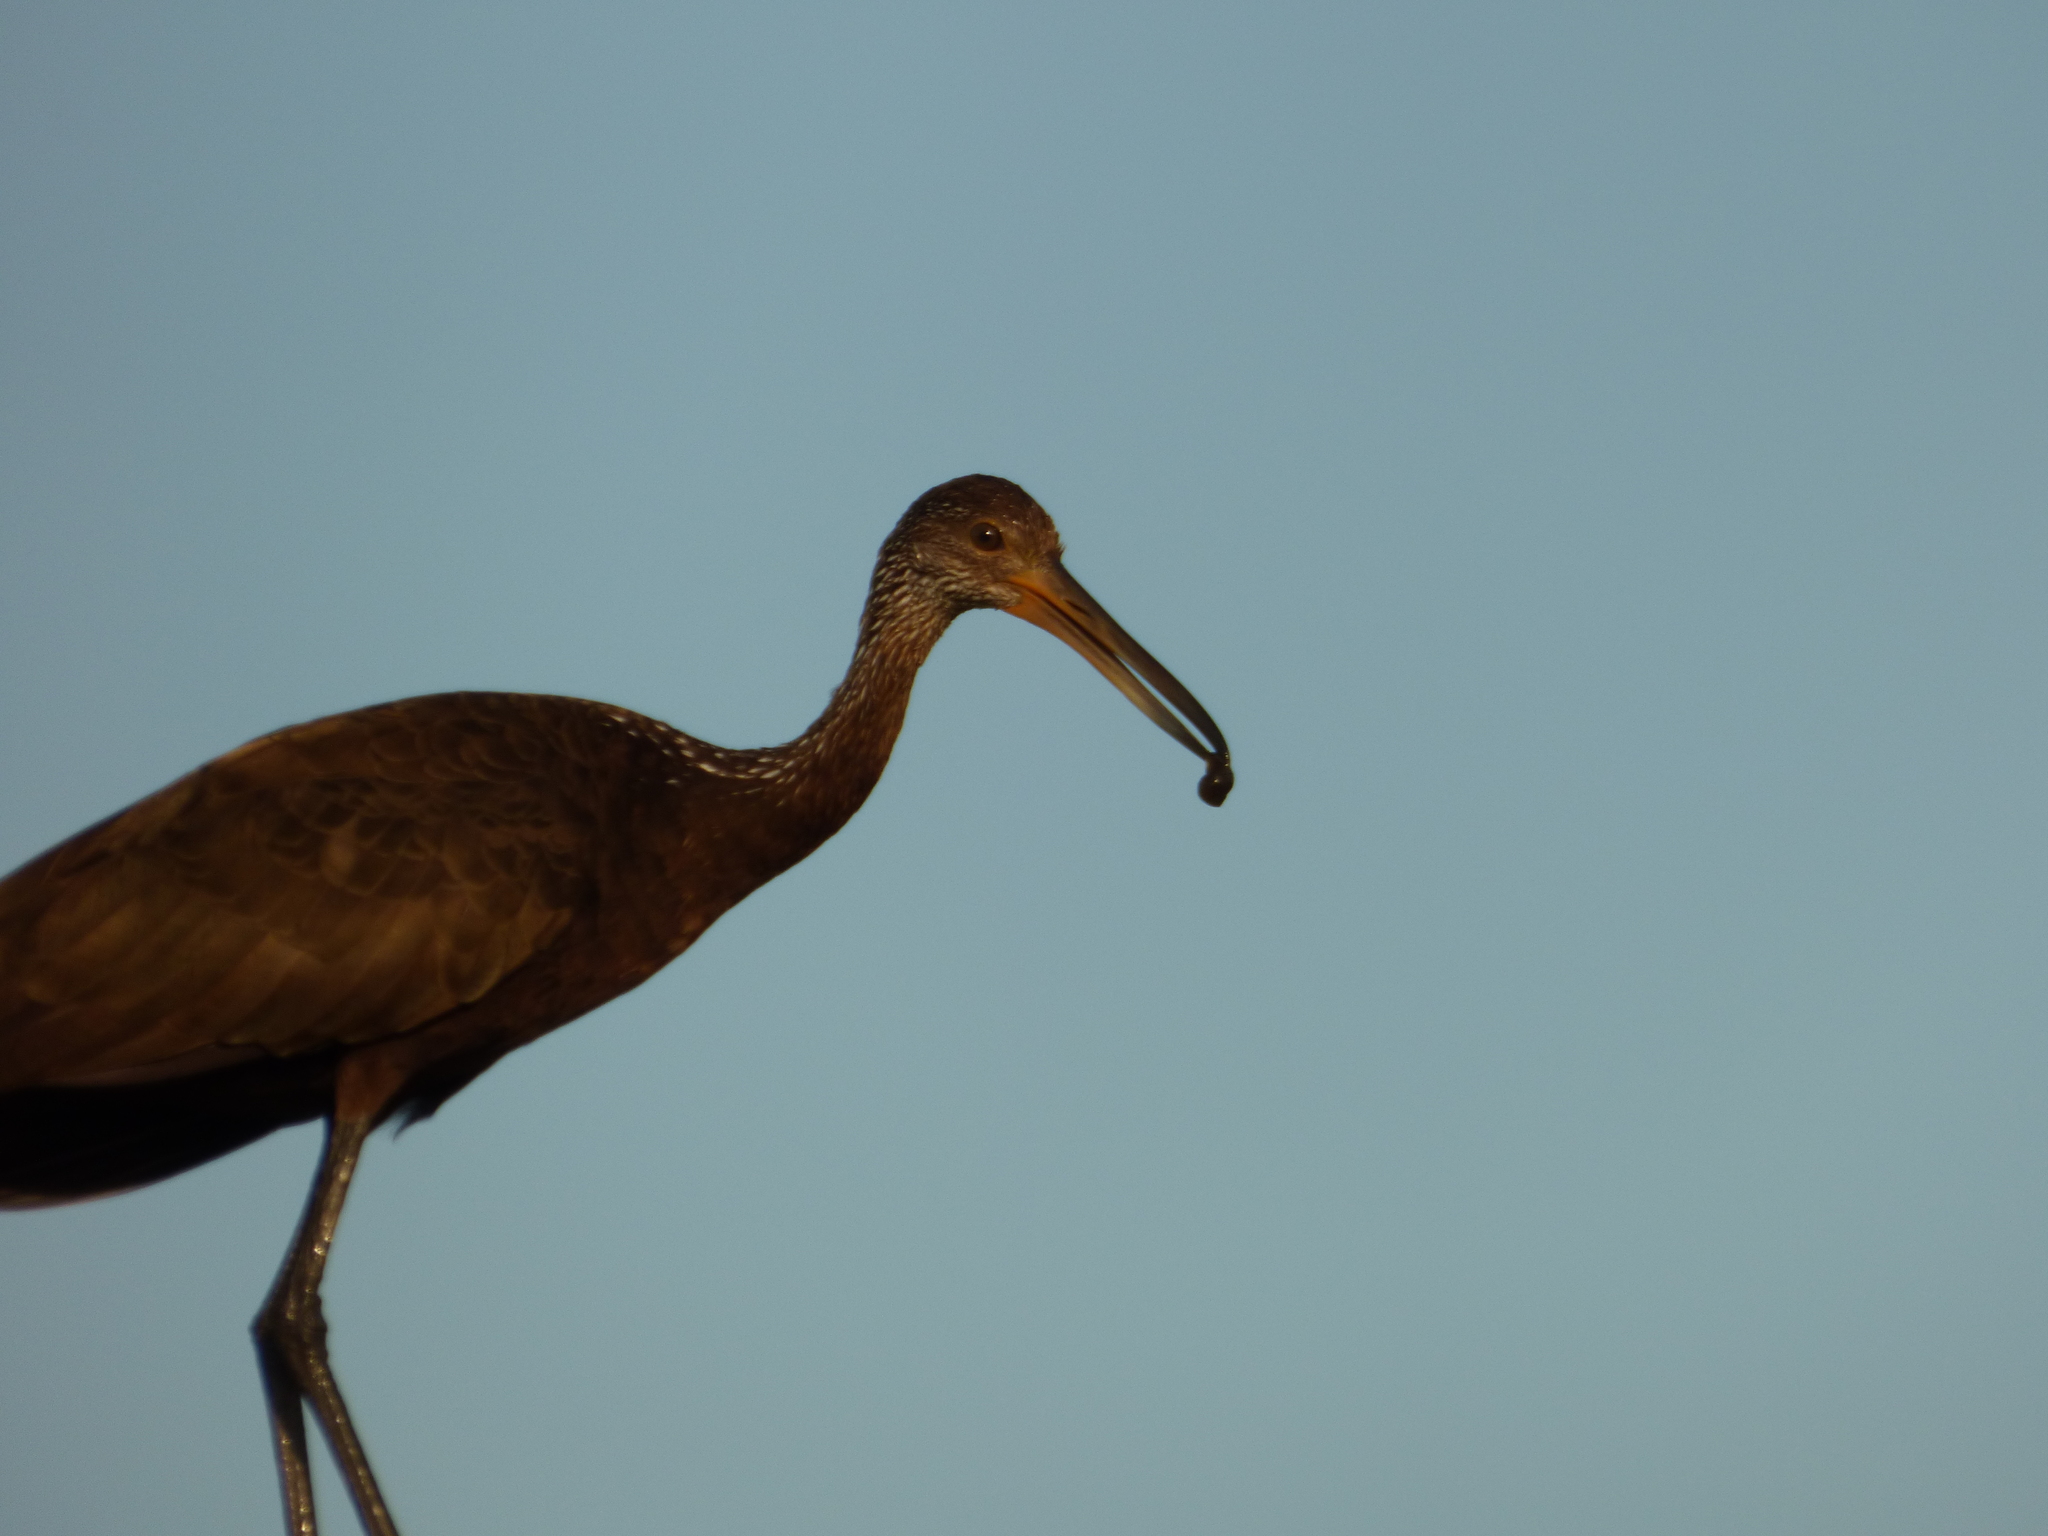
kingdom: Animalia
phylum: Chordata
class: Aves
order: Gruiformes
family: Aramidae
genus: Aramus
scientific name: Aramus guarauna
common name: Limpkin
